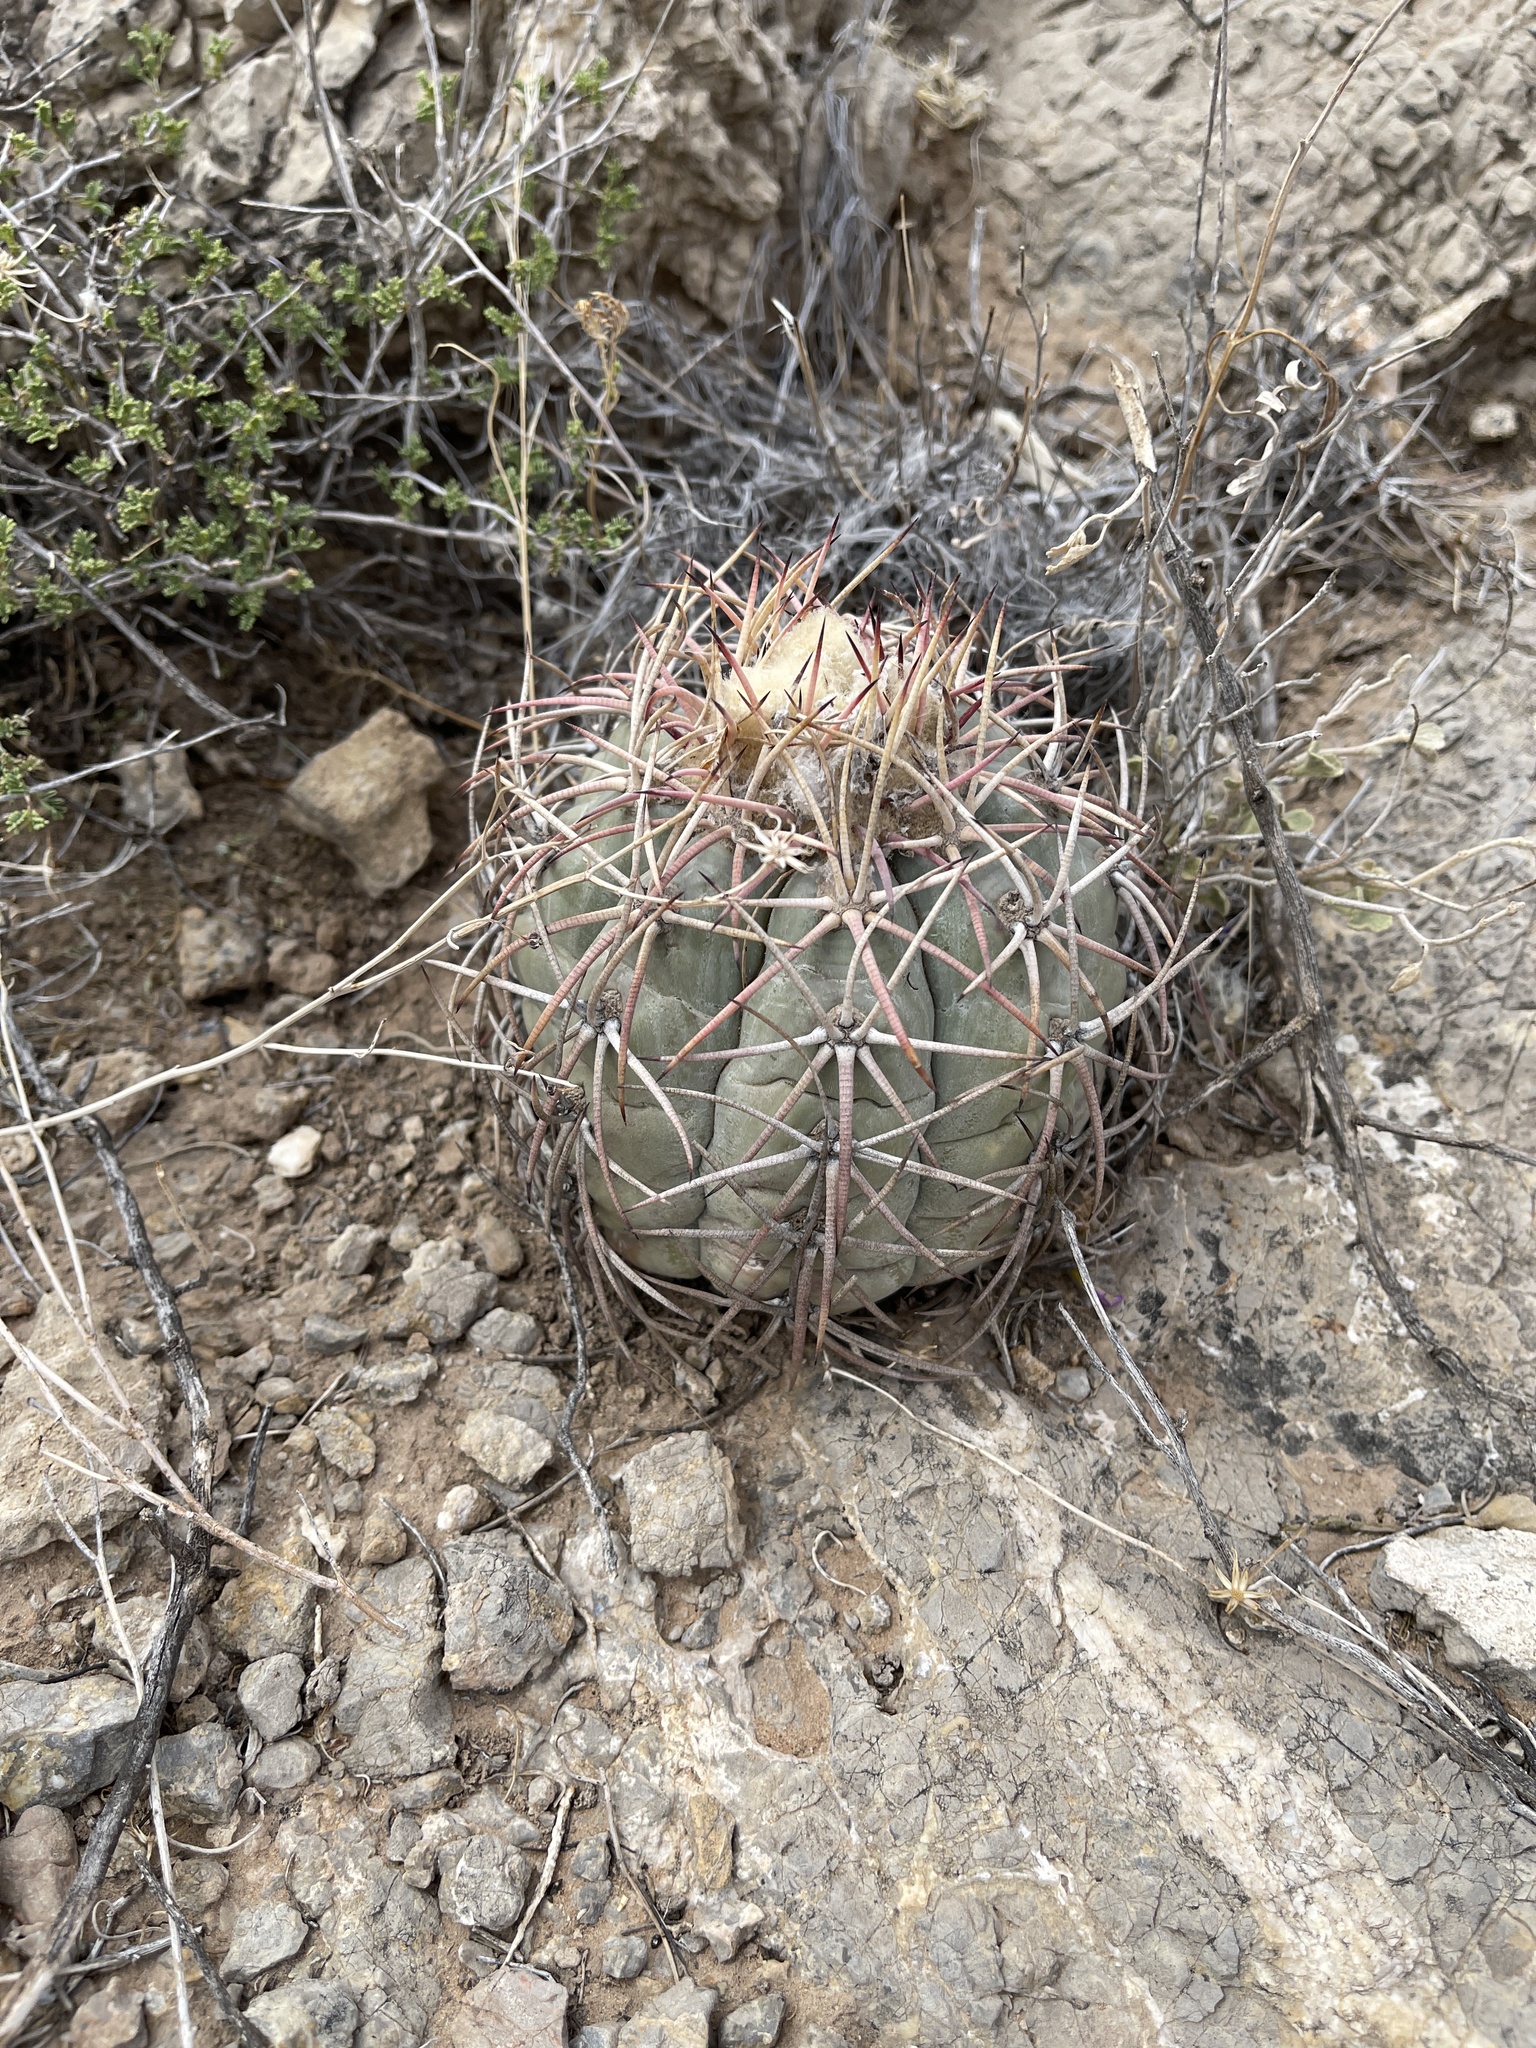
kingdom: Plantae
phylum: Tracheophyta
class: Magnoliopsida
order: Caryophyllales
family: Cactaceae
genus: Echinocactus
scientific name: Echinocactus horizonthalonius
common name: Devilshead
